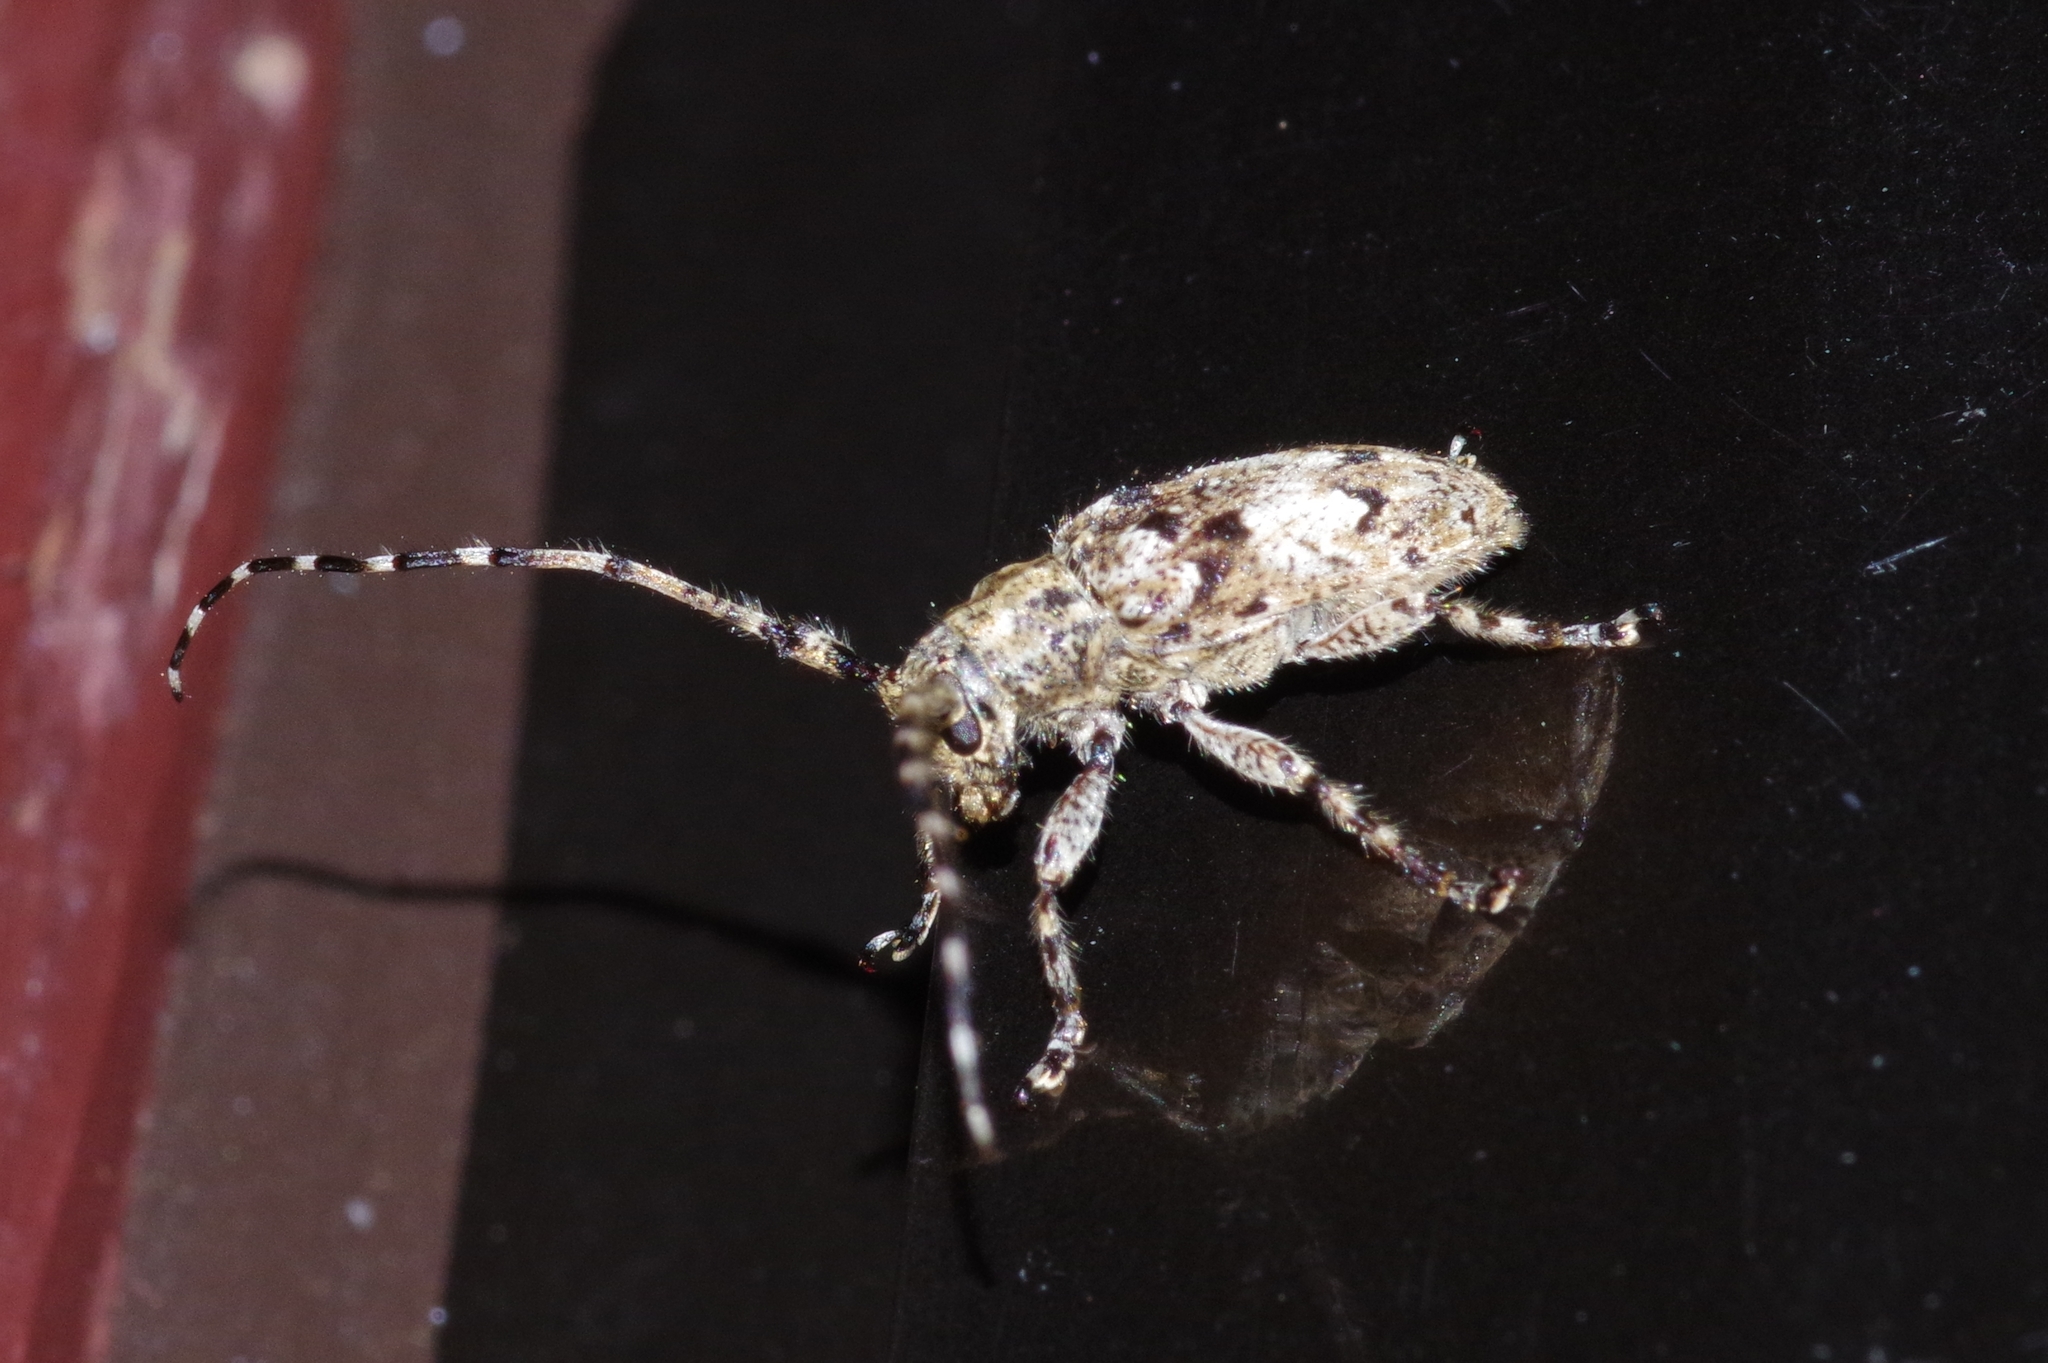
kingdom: Animalia
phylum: Arthropoda
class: Insecta
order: Coleoptera
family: Cerambycidae
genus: Mesosa
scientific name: Mesosa pictipes
